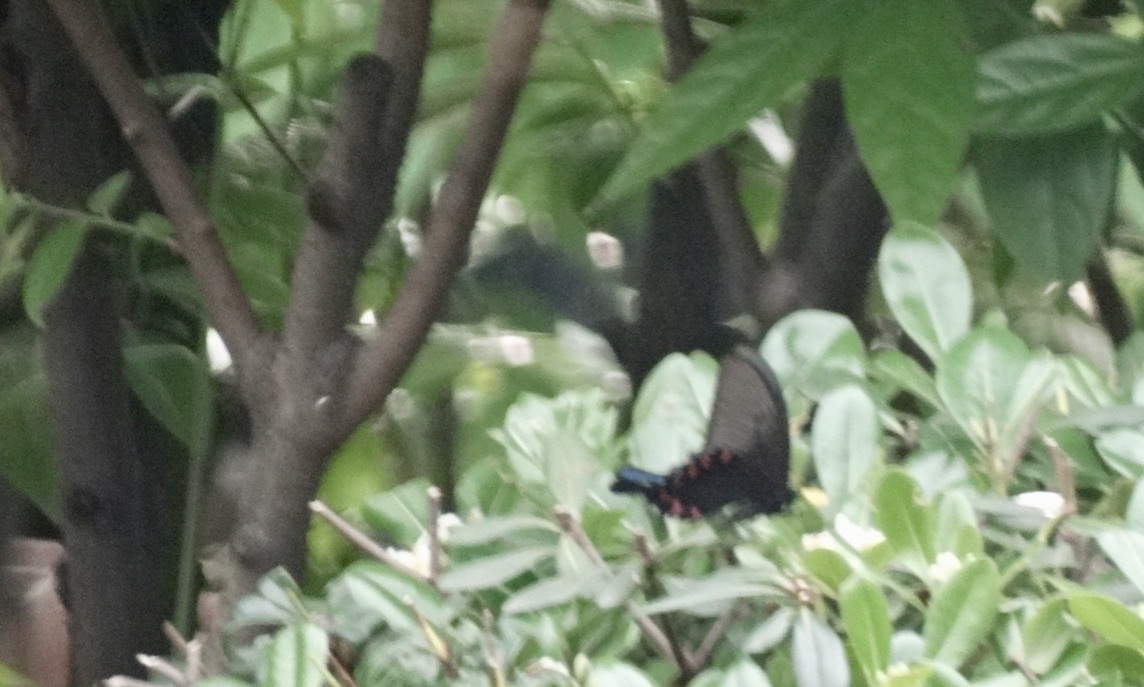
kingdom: Animalia
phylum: Arthropoda
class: Insecta
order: Lepidoptera
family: Papilionidae
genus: Papilio
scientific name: Papilio bianor
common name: Common peacock
